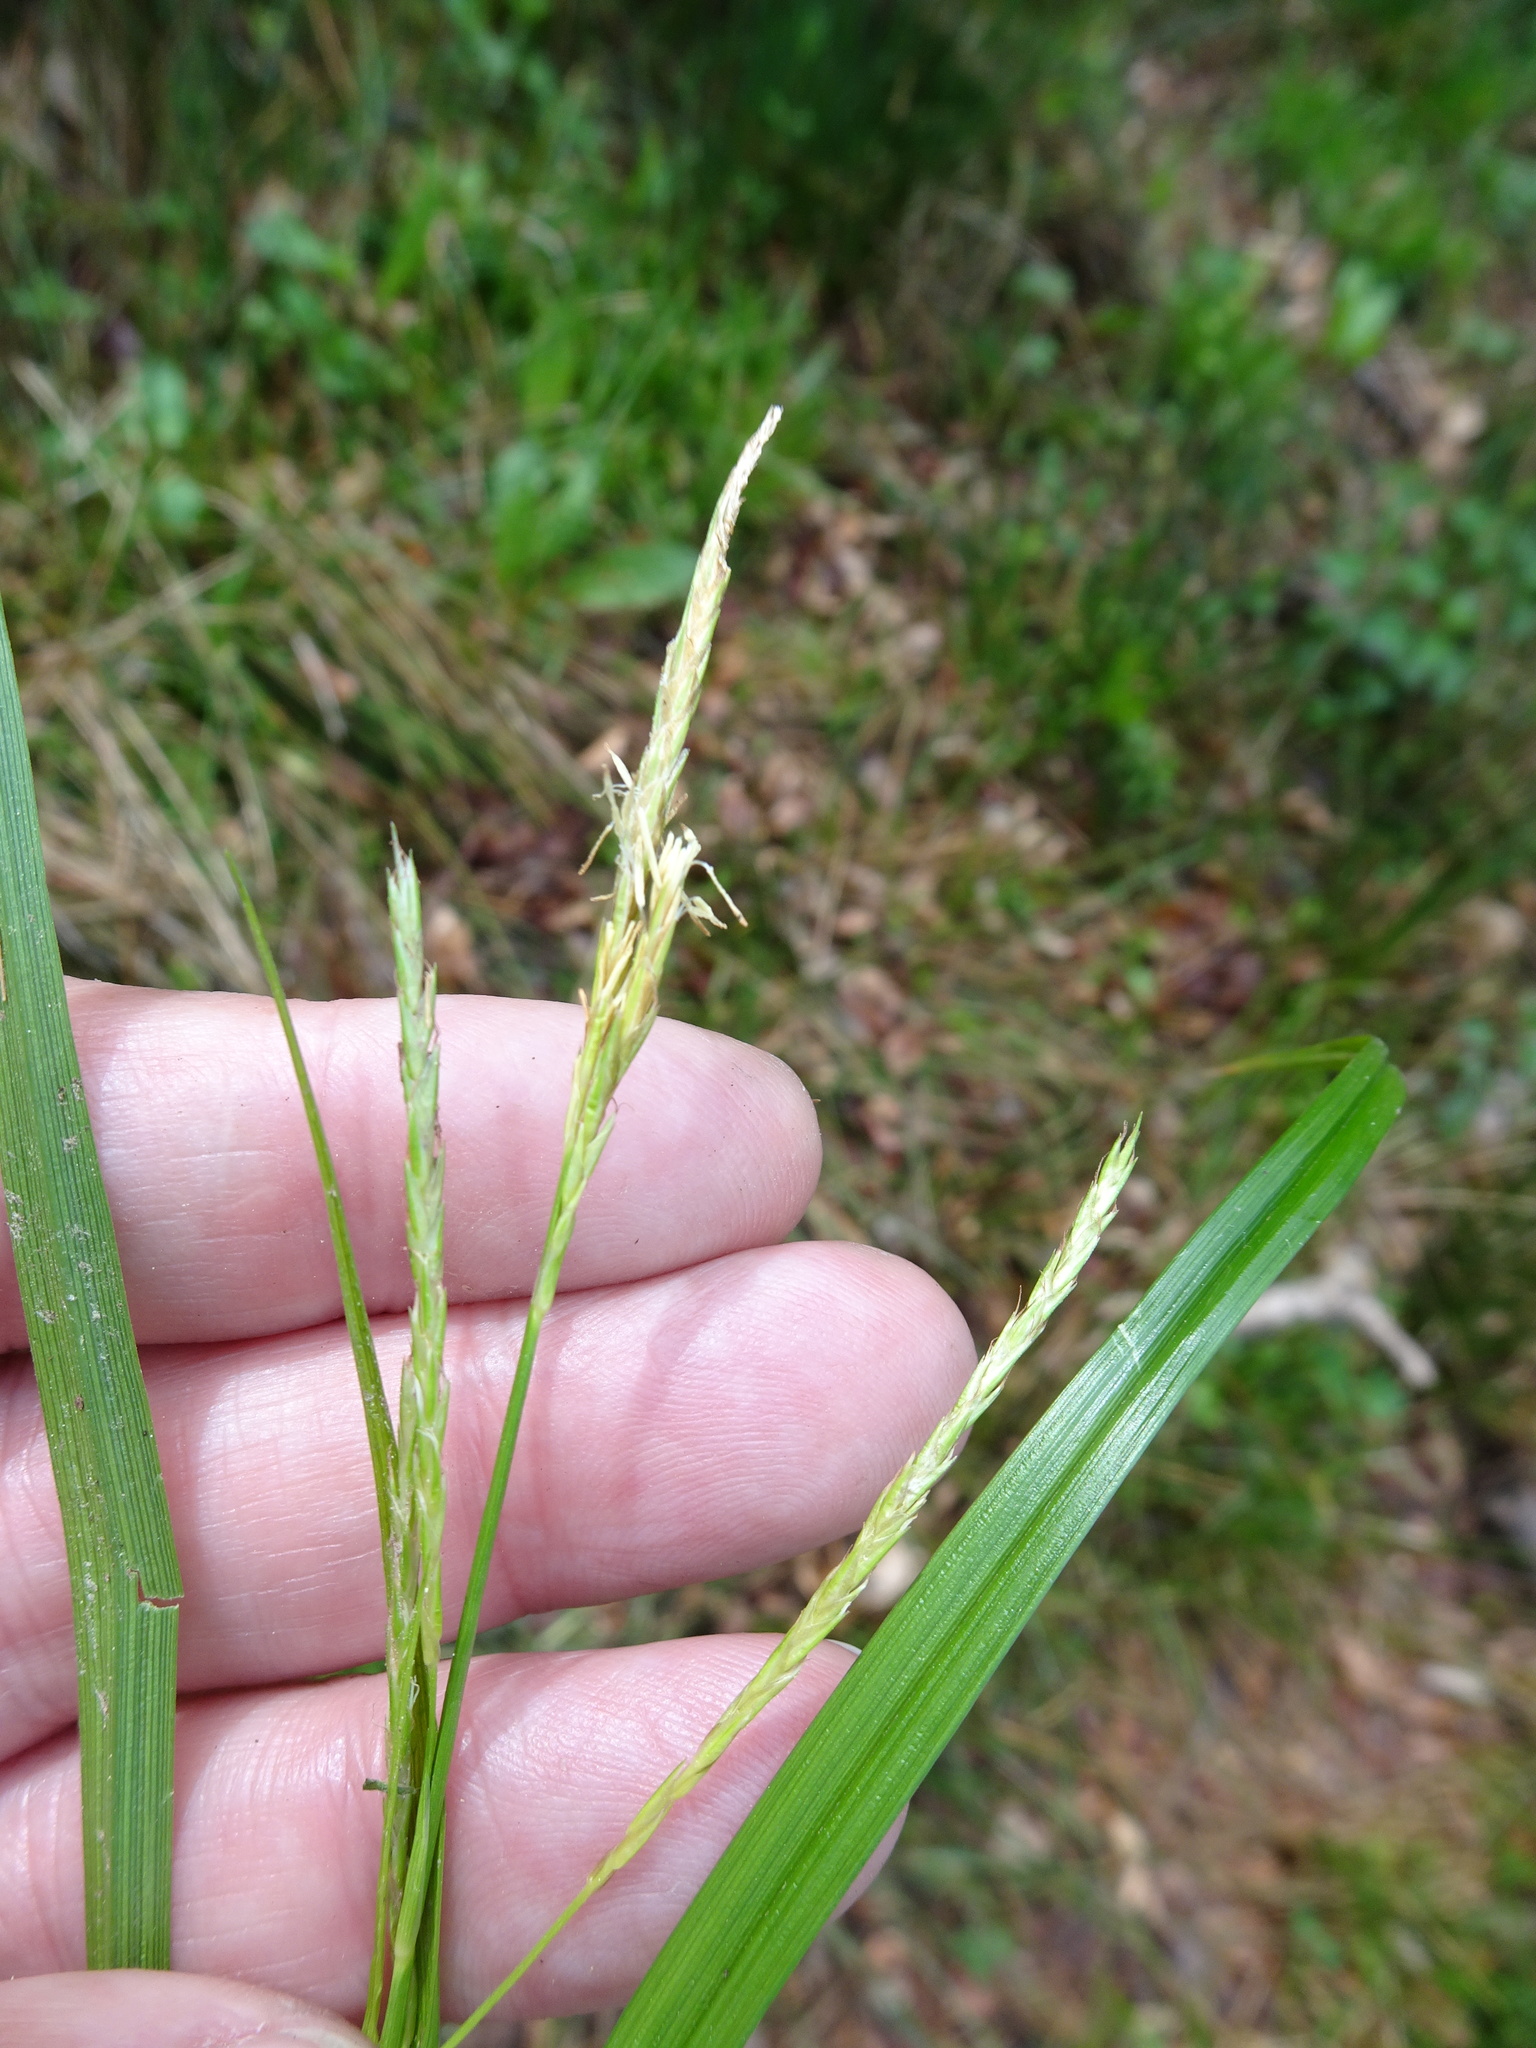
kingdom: Plantae
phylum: Tracheophyta
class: Liliopsida
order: Poales
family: Cyperaceae
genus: Carex
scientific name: Carex sylvatica
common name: Wood-sedge
